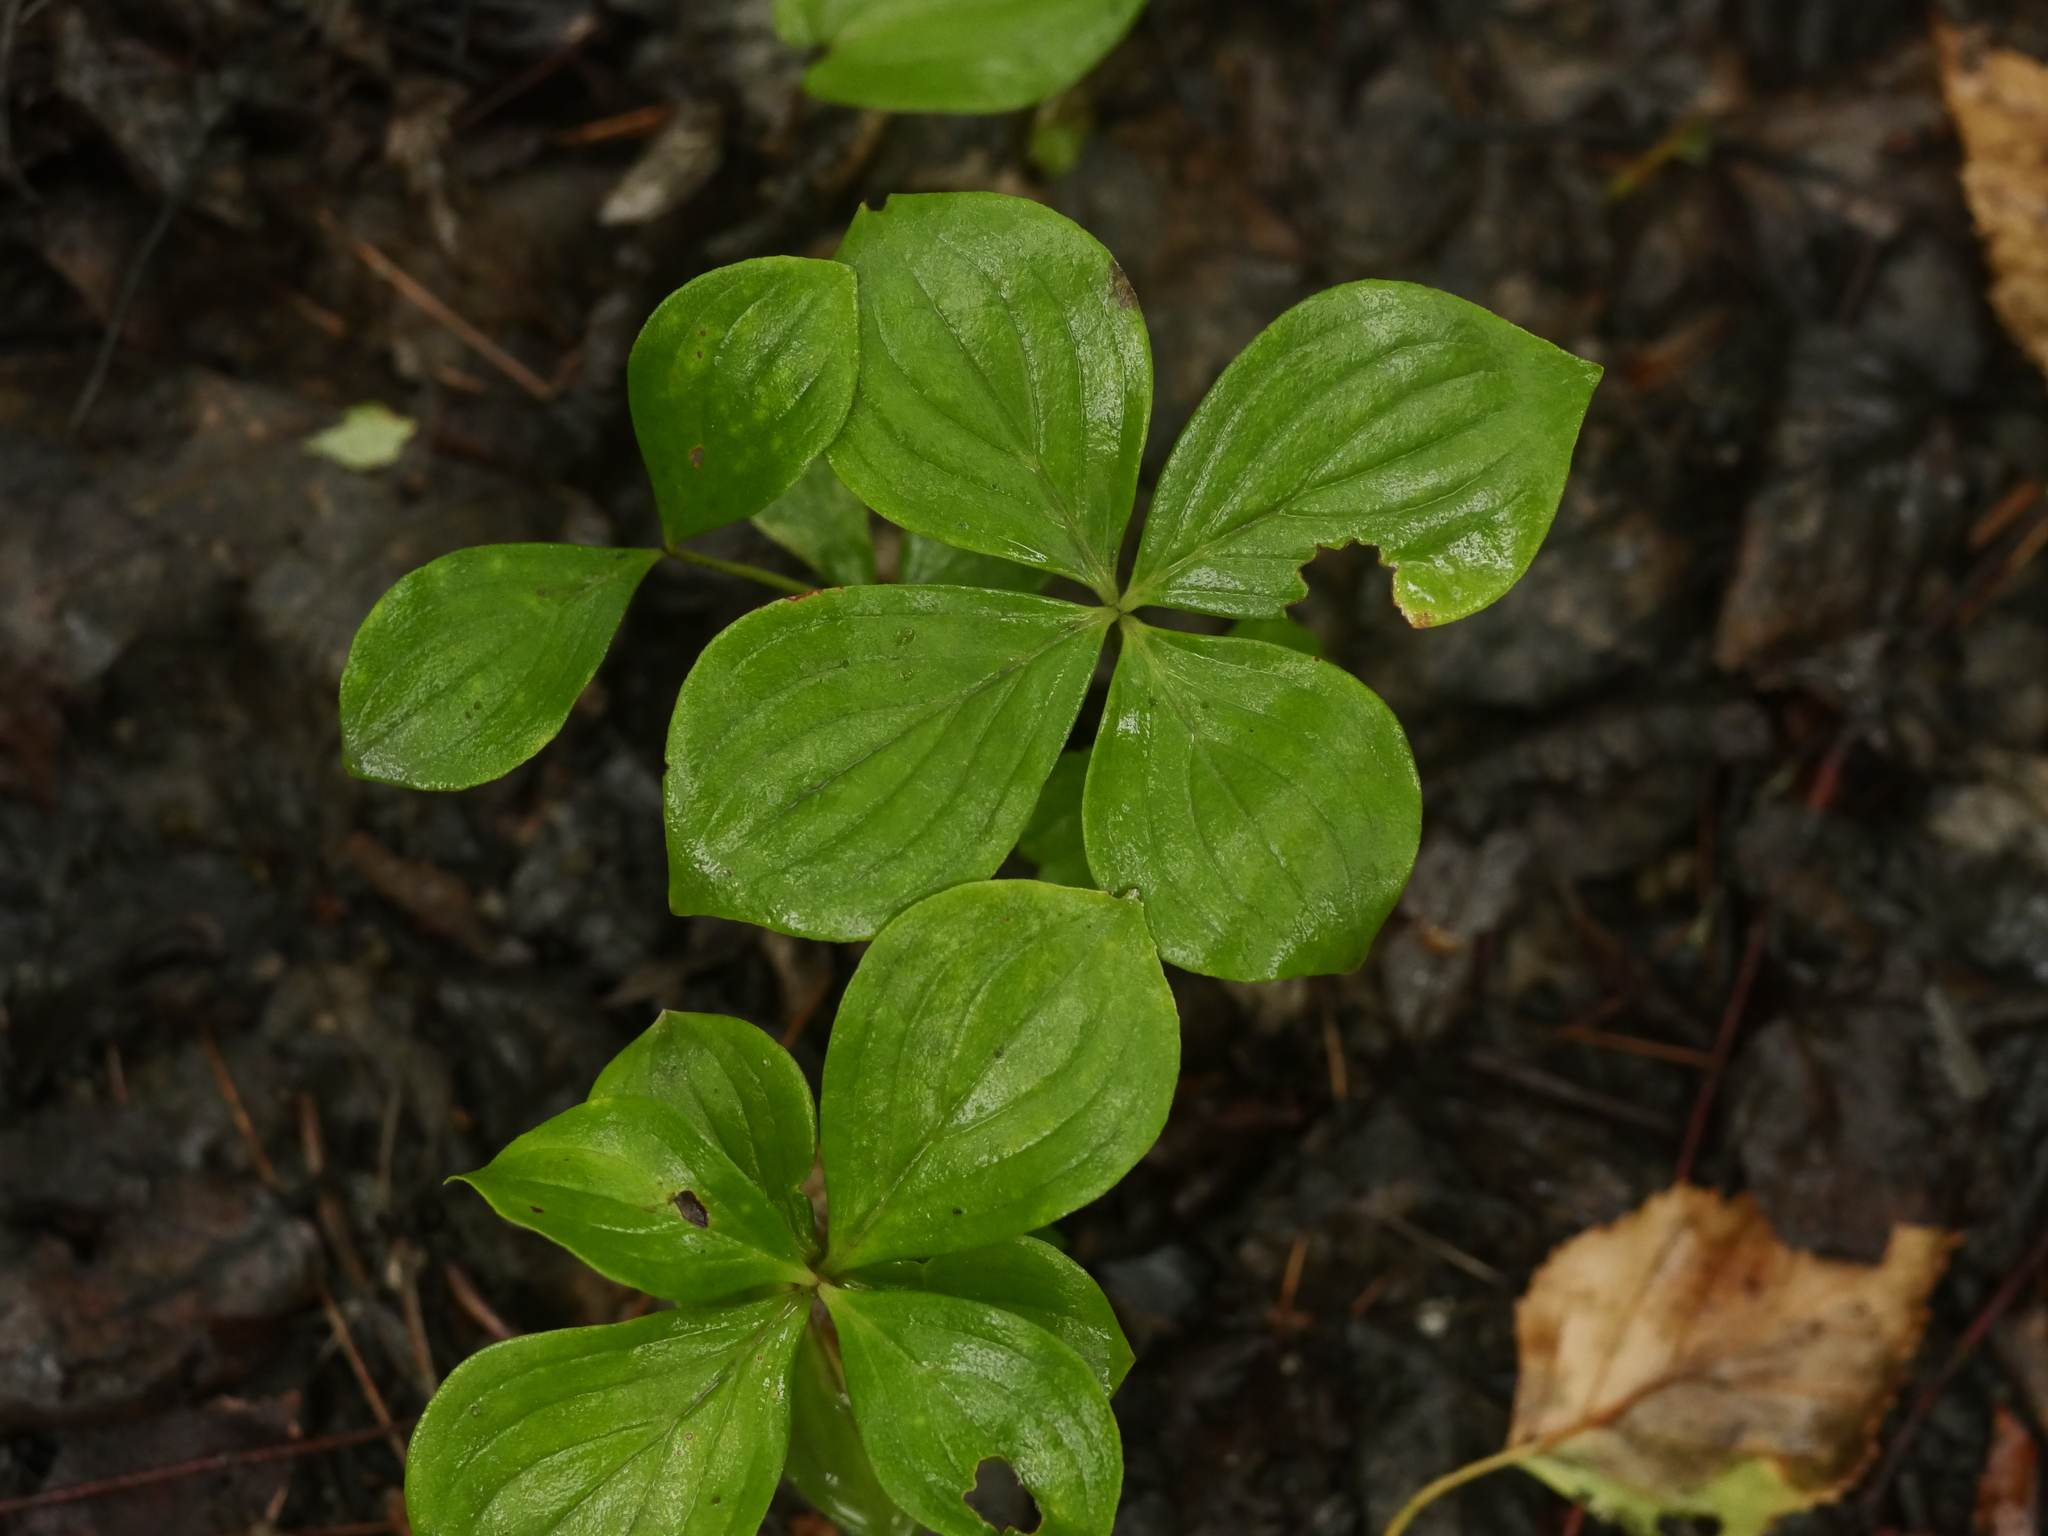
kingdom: Plantae
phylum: Tracheophyta
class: Magnoliopsida
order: Cornales
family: Cornaceae
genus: Cornus
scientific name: Cornus canadensis
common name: Creeping dogwood
